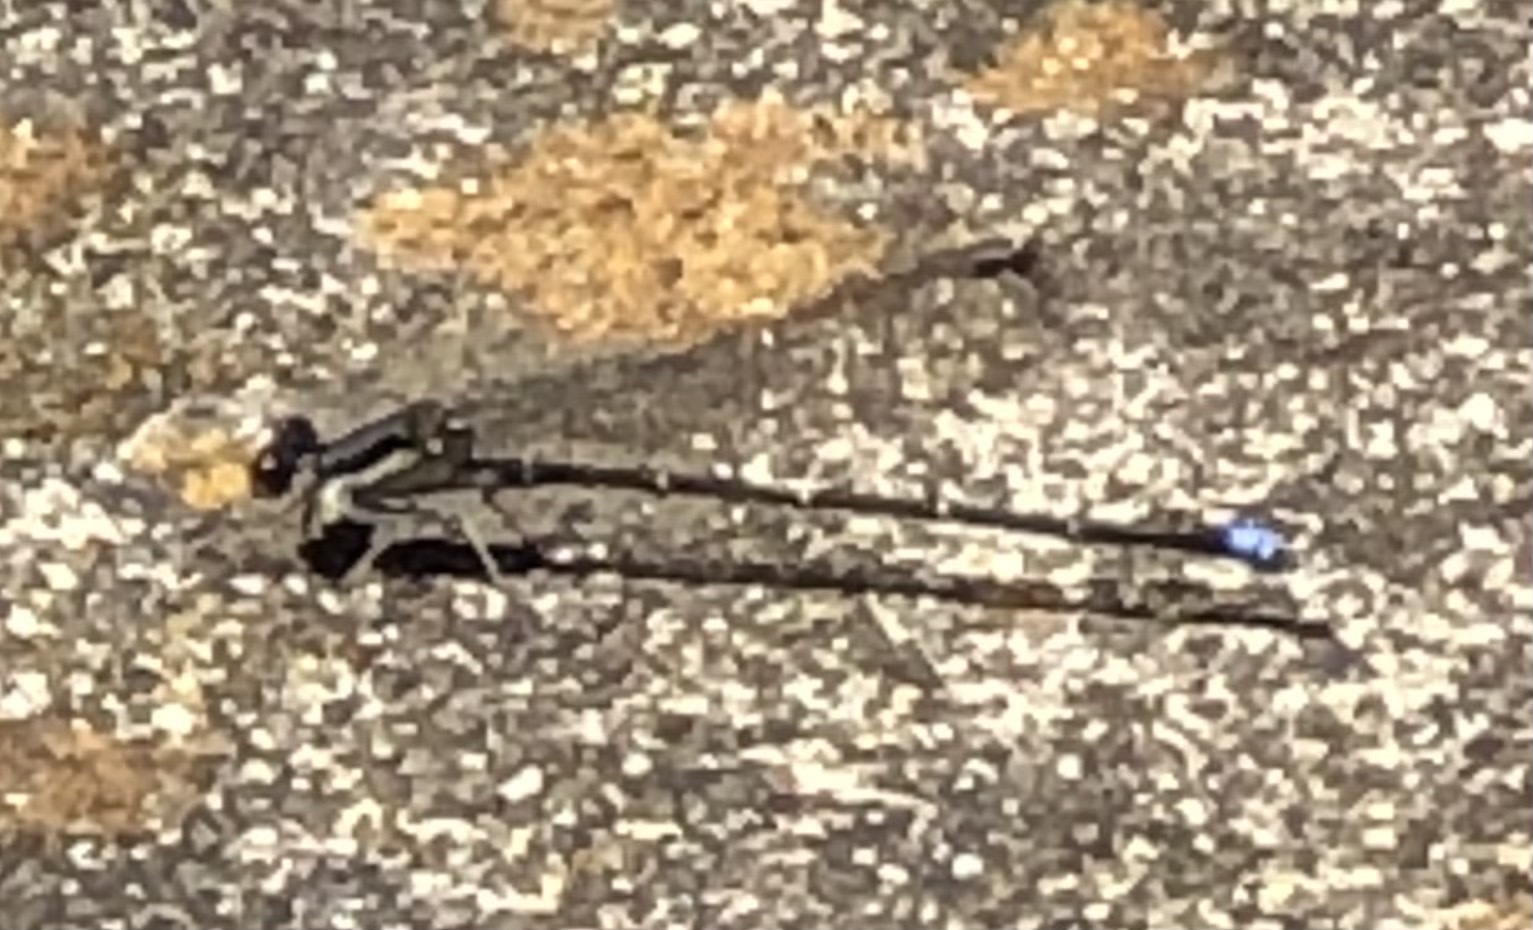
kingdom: Animalia
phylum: Arthropoda
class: Insecta
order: Odonata
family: Coenagrionidae
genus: Argia
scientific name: Argia tibialis
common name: Blue-tipped dancer
